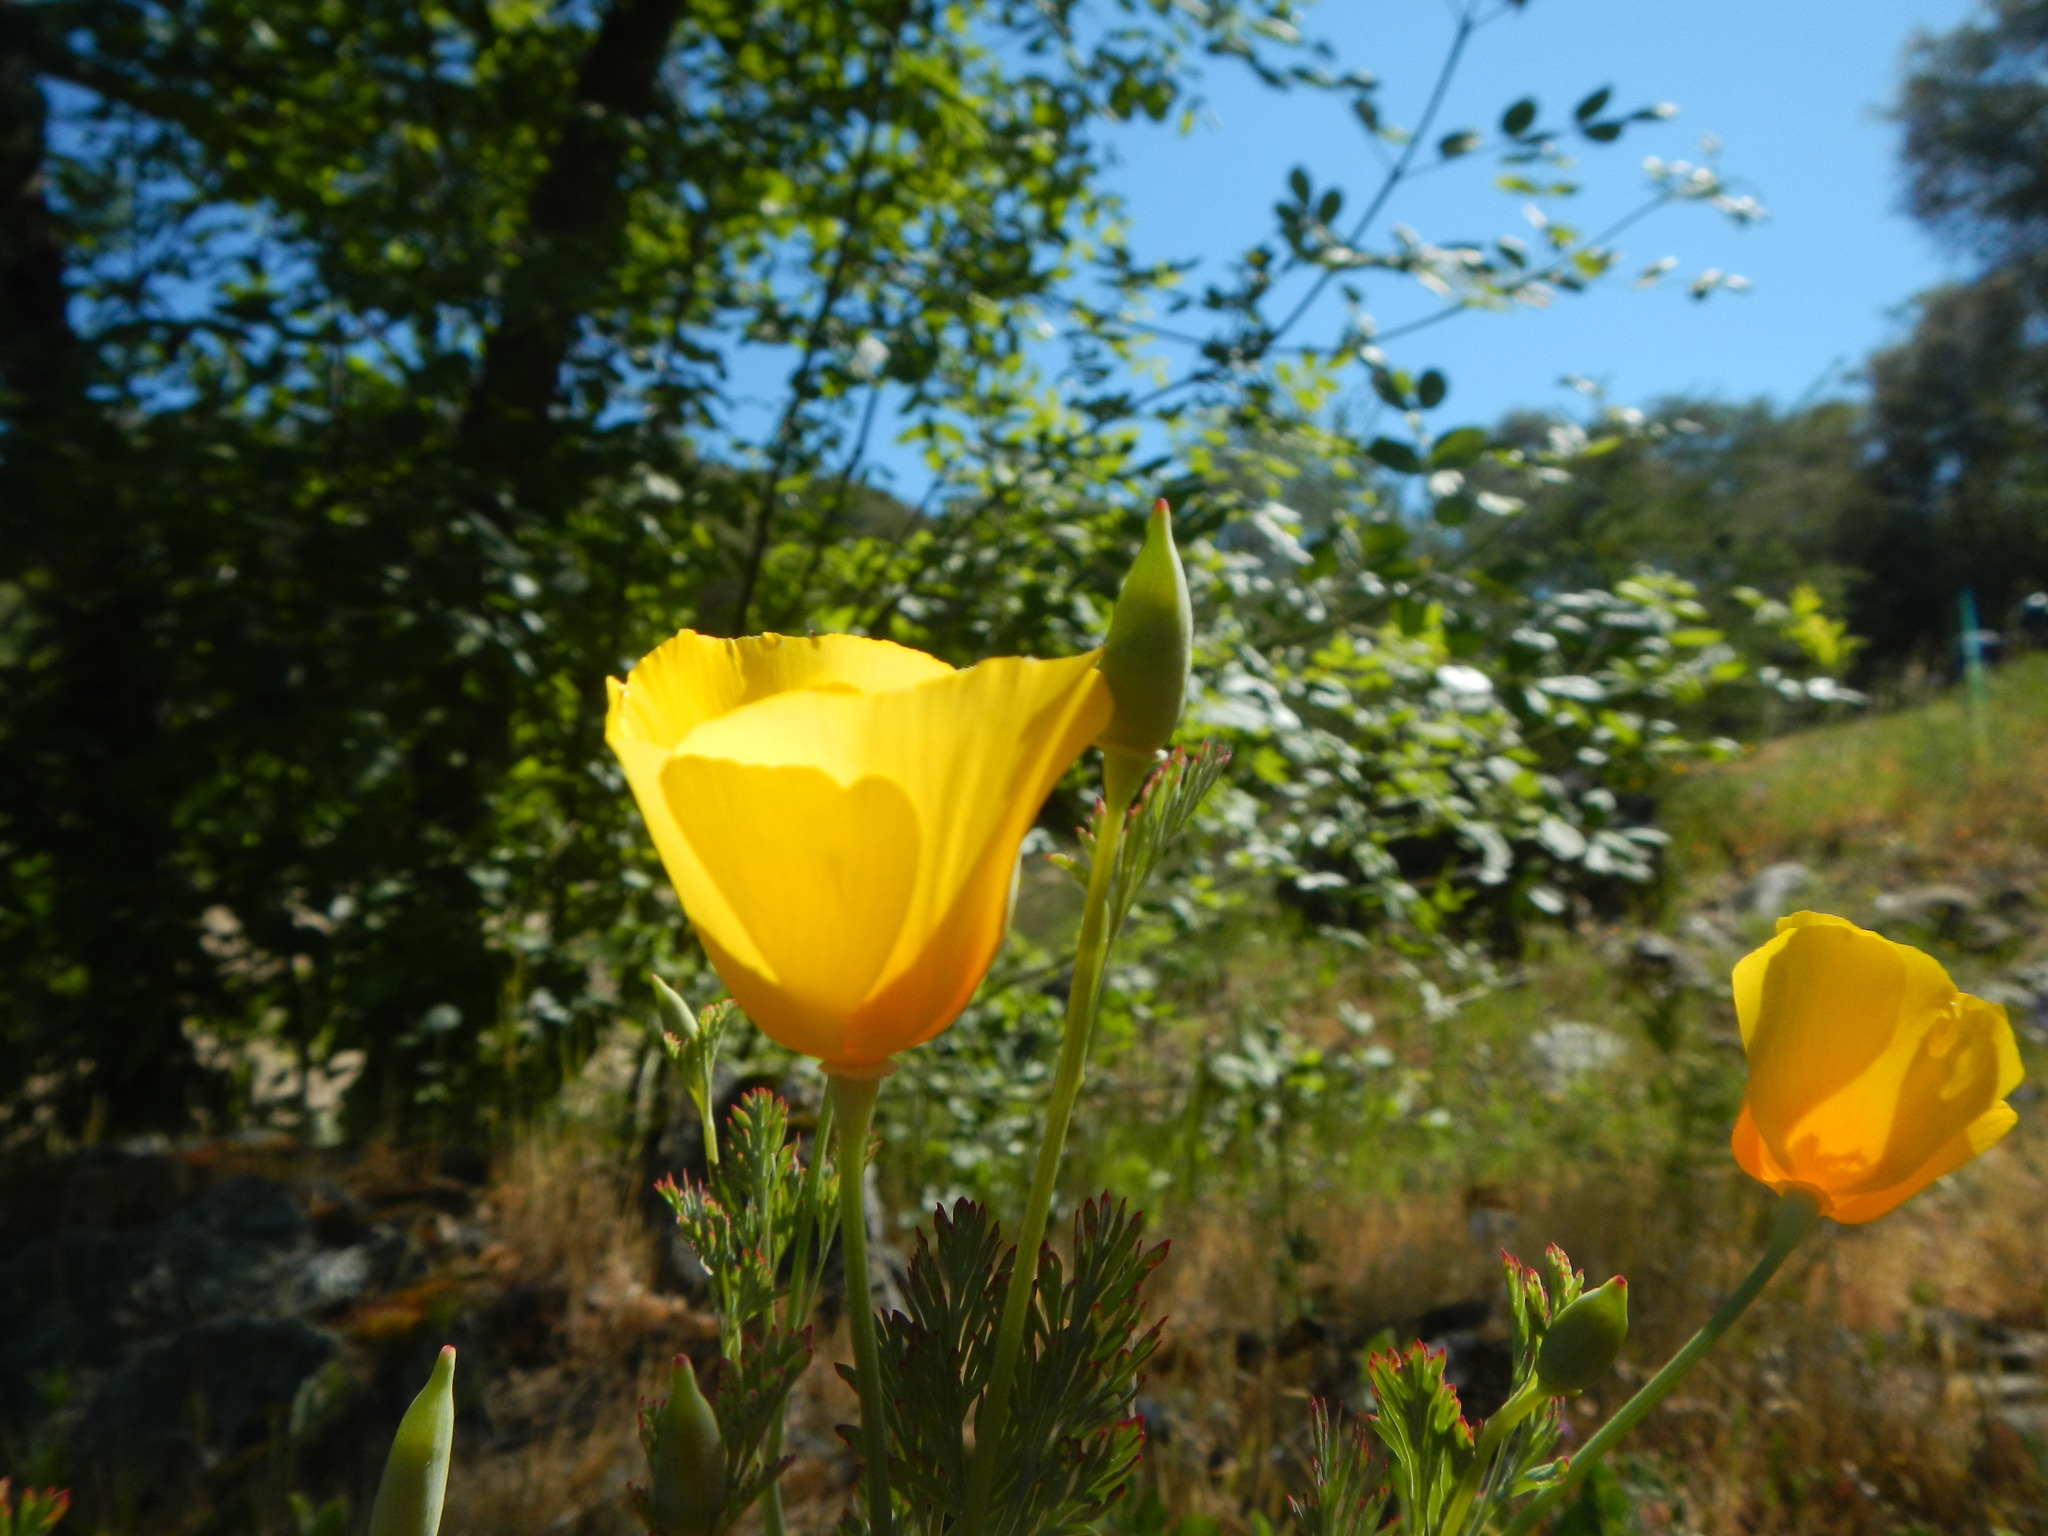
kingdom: Plantae
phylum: Tracheophyta
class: Magnoliopsida
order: Ranunculales
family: Papaveraceae
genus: Eschscholzia
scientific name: Eschscholzia californica
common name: California poppy
